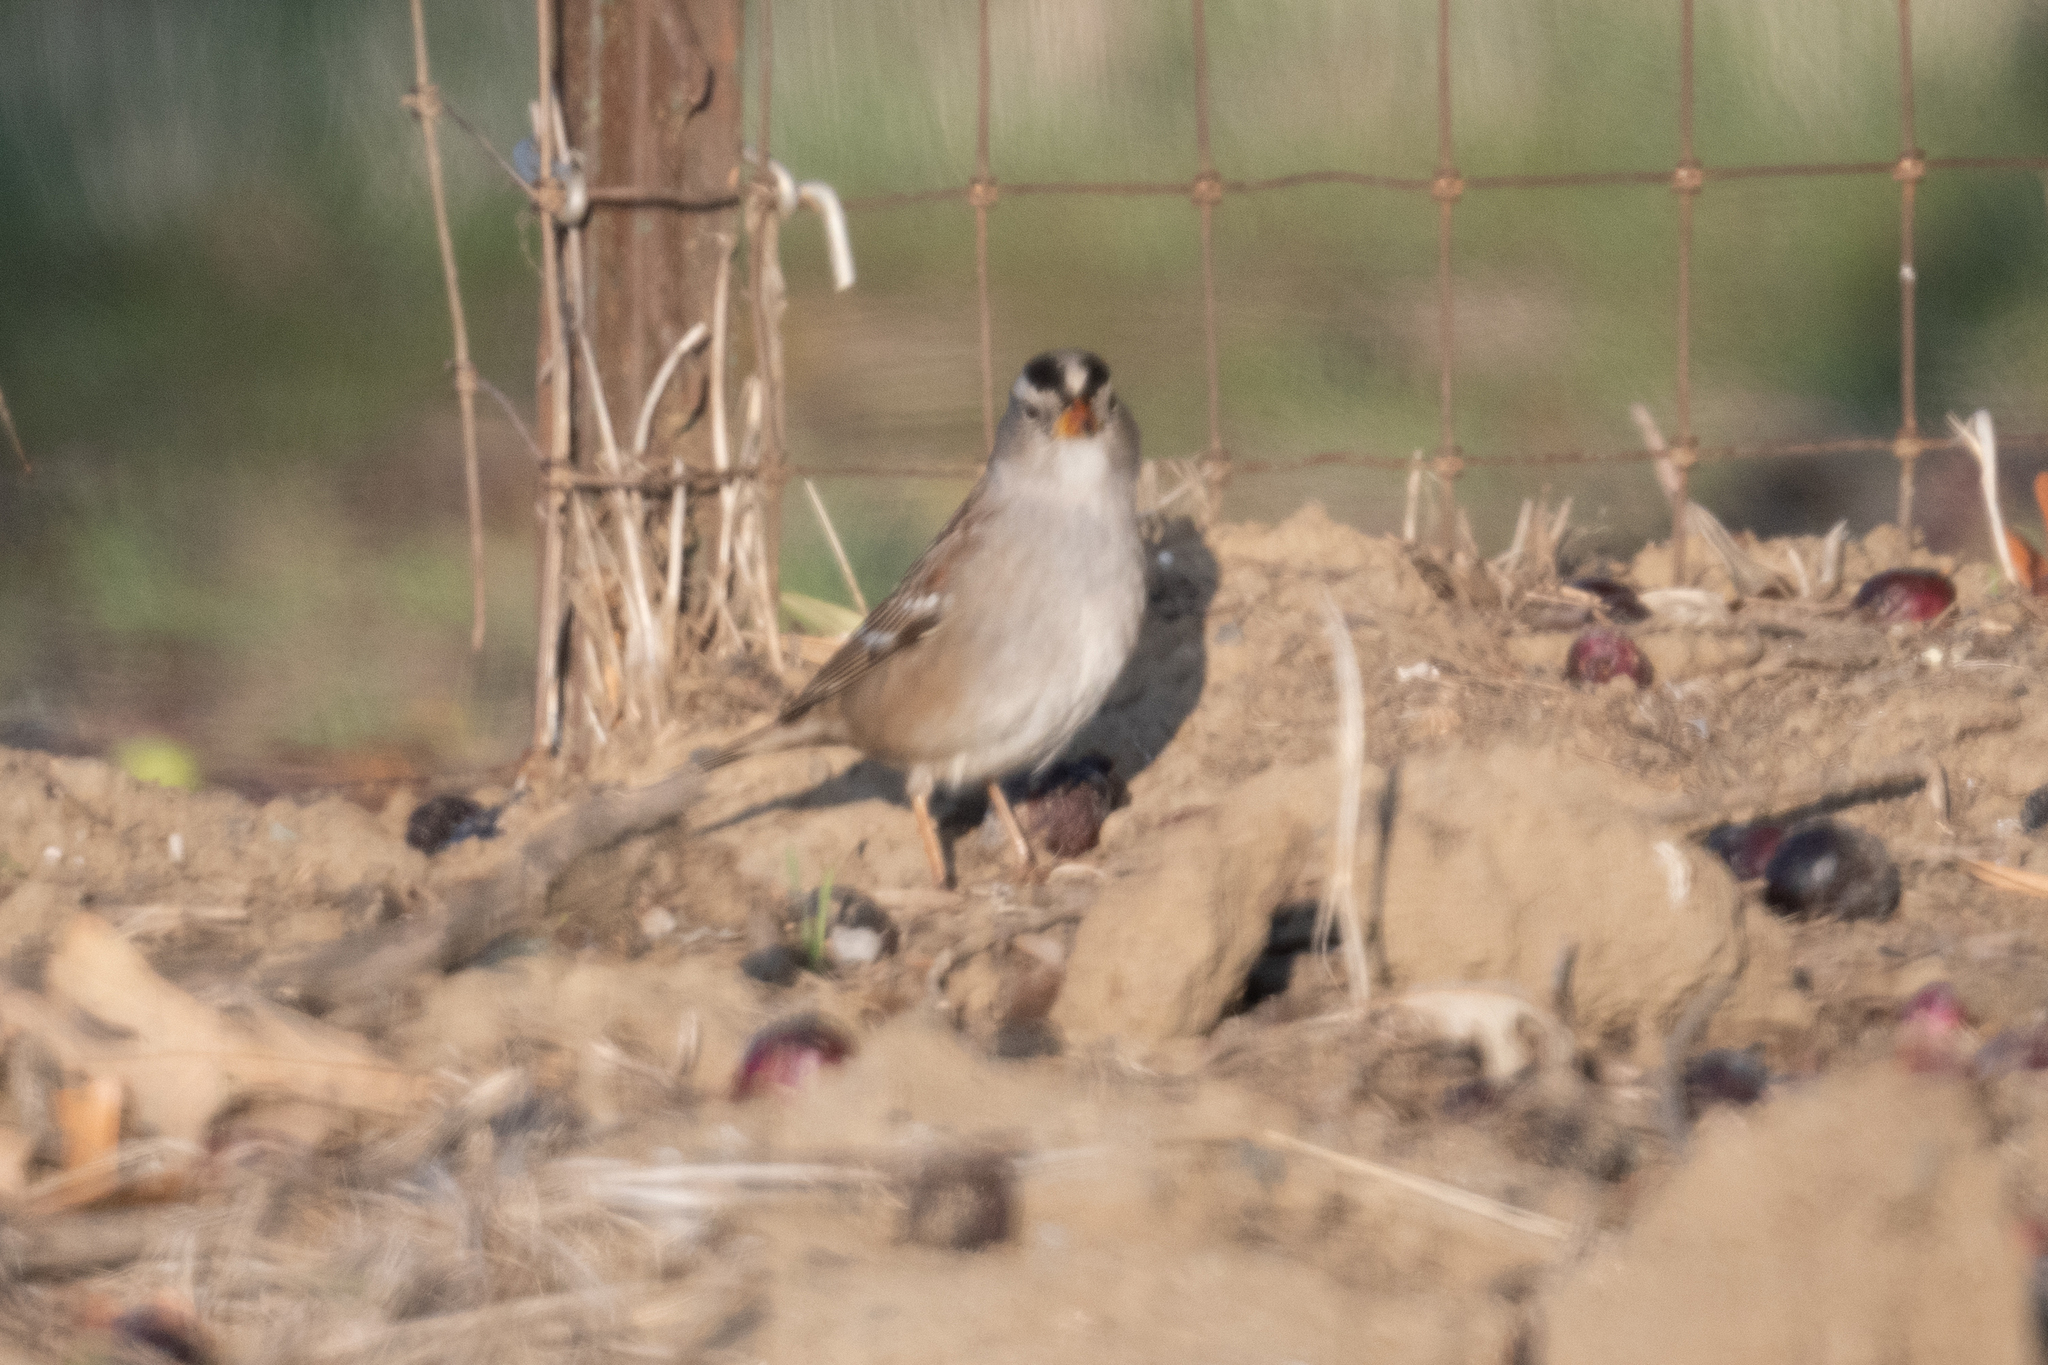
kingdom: Animalia
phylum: Chordata
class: Aves
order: Passeriformes
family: Passerellidae
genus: Zonotrichia
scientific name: Zonotrichia leucophrys
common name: White-crowned sparrow
